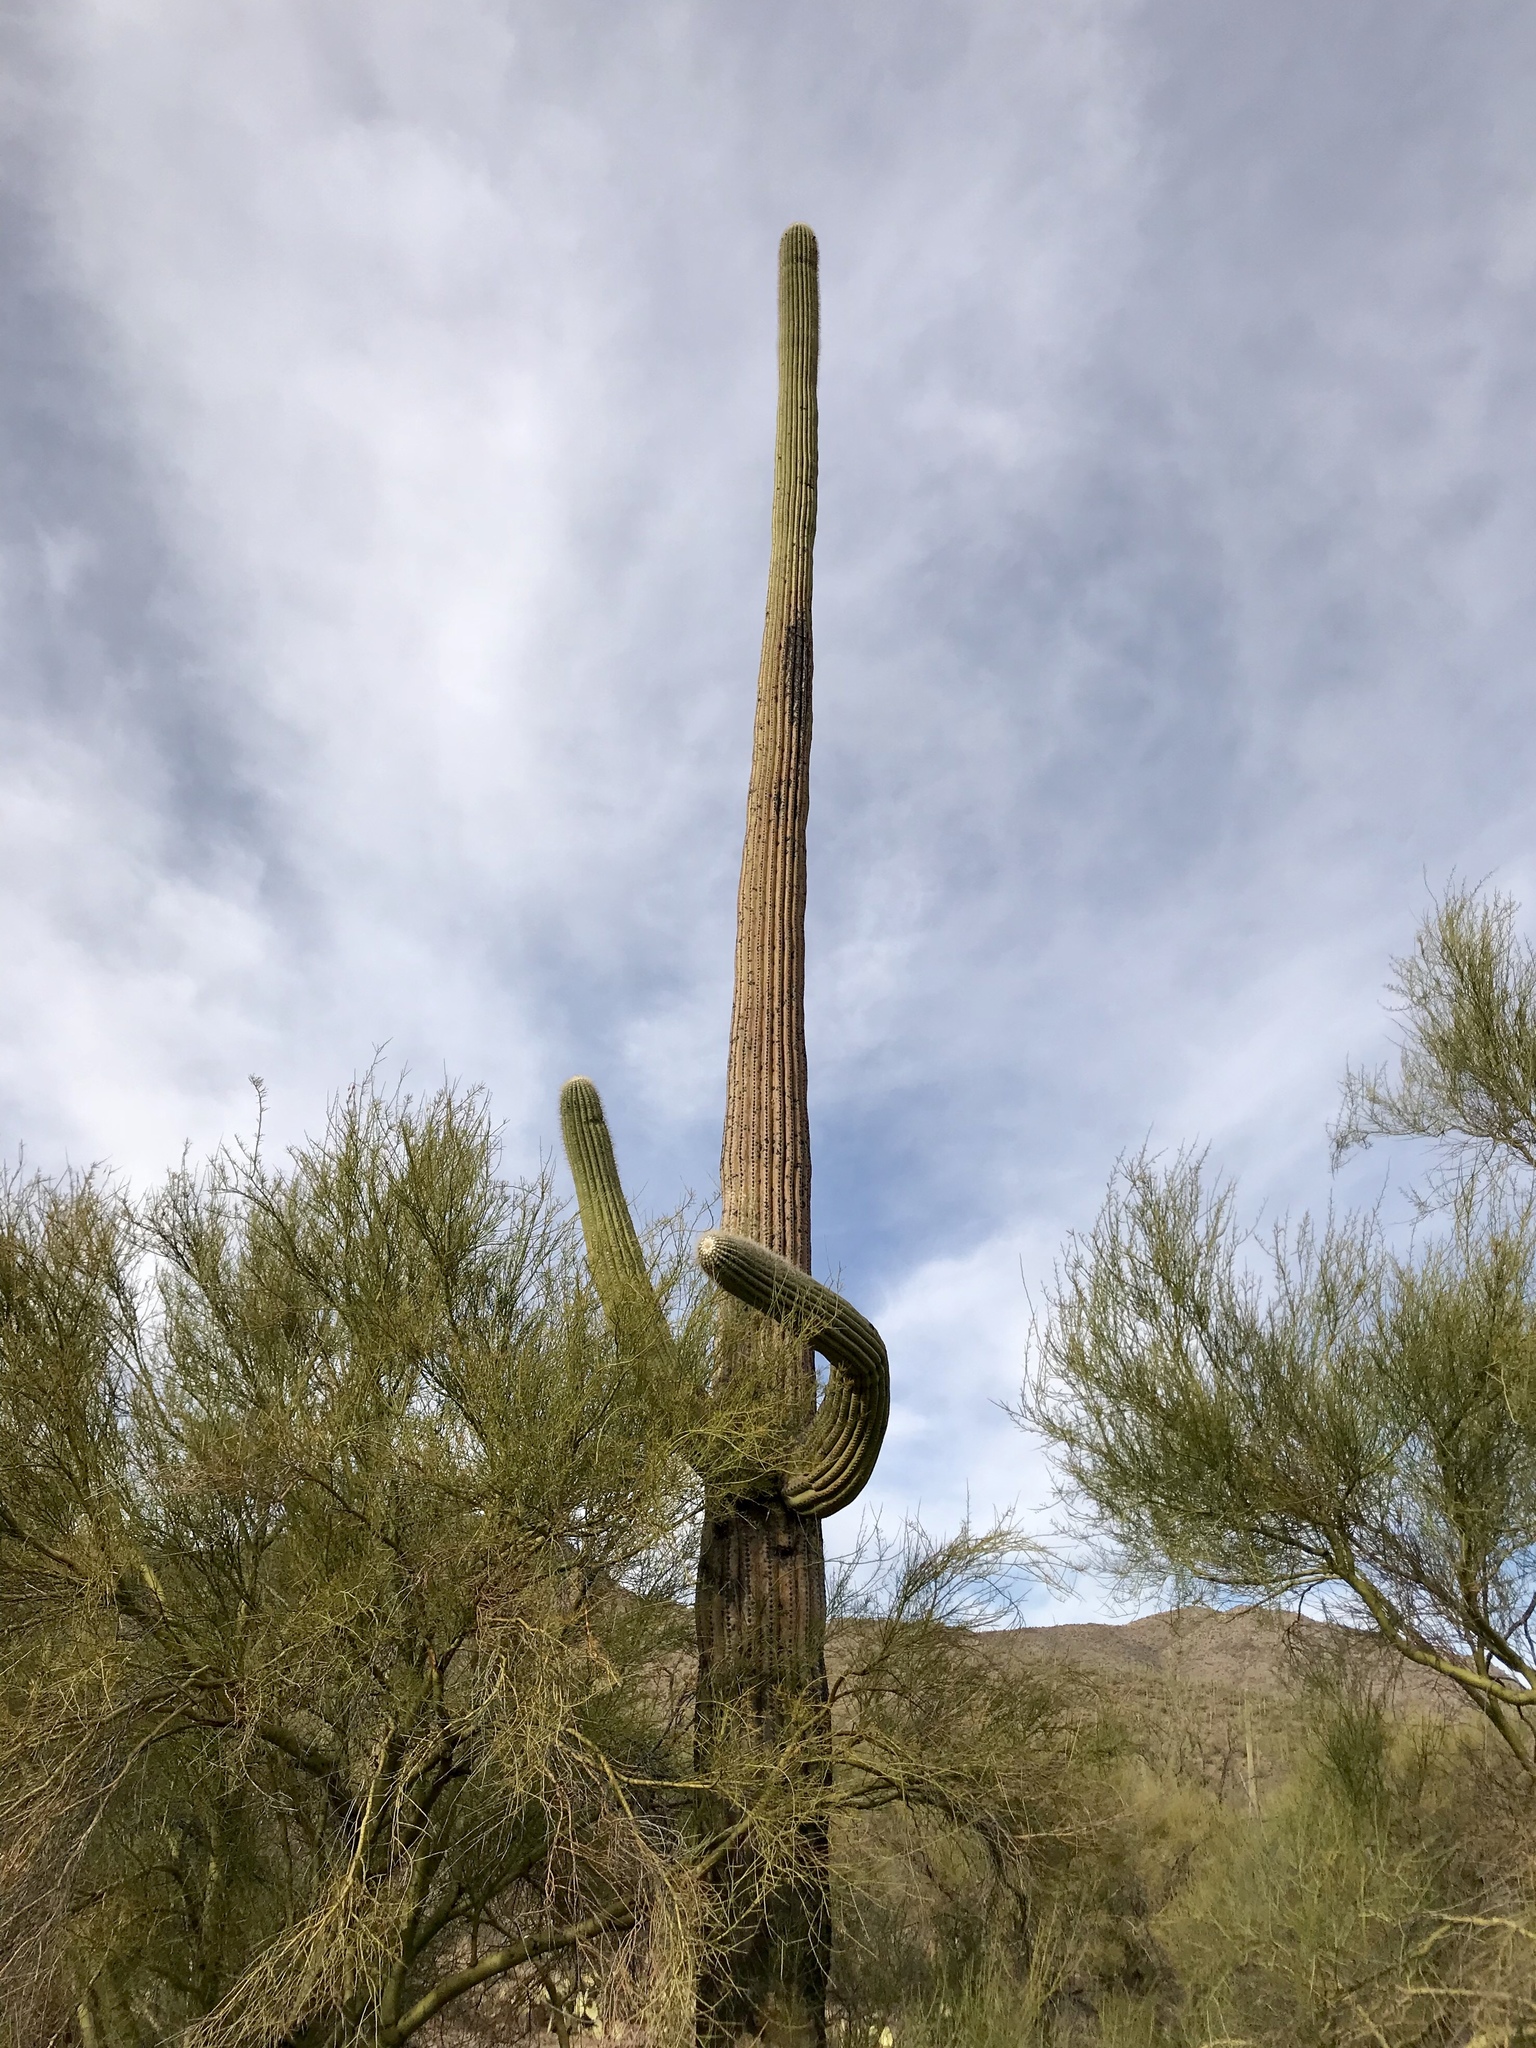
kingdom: Plantae
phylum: Tracheophyta
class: Magnoliopsida
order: Caryophyllales
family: Cactaceae
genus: Carnegiea
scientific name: Carnegiea gigantea
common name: Saguaro
